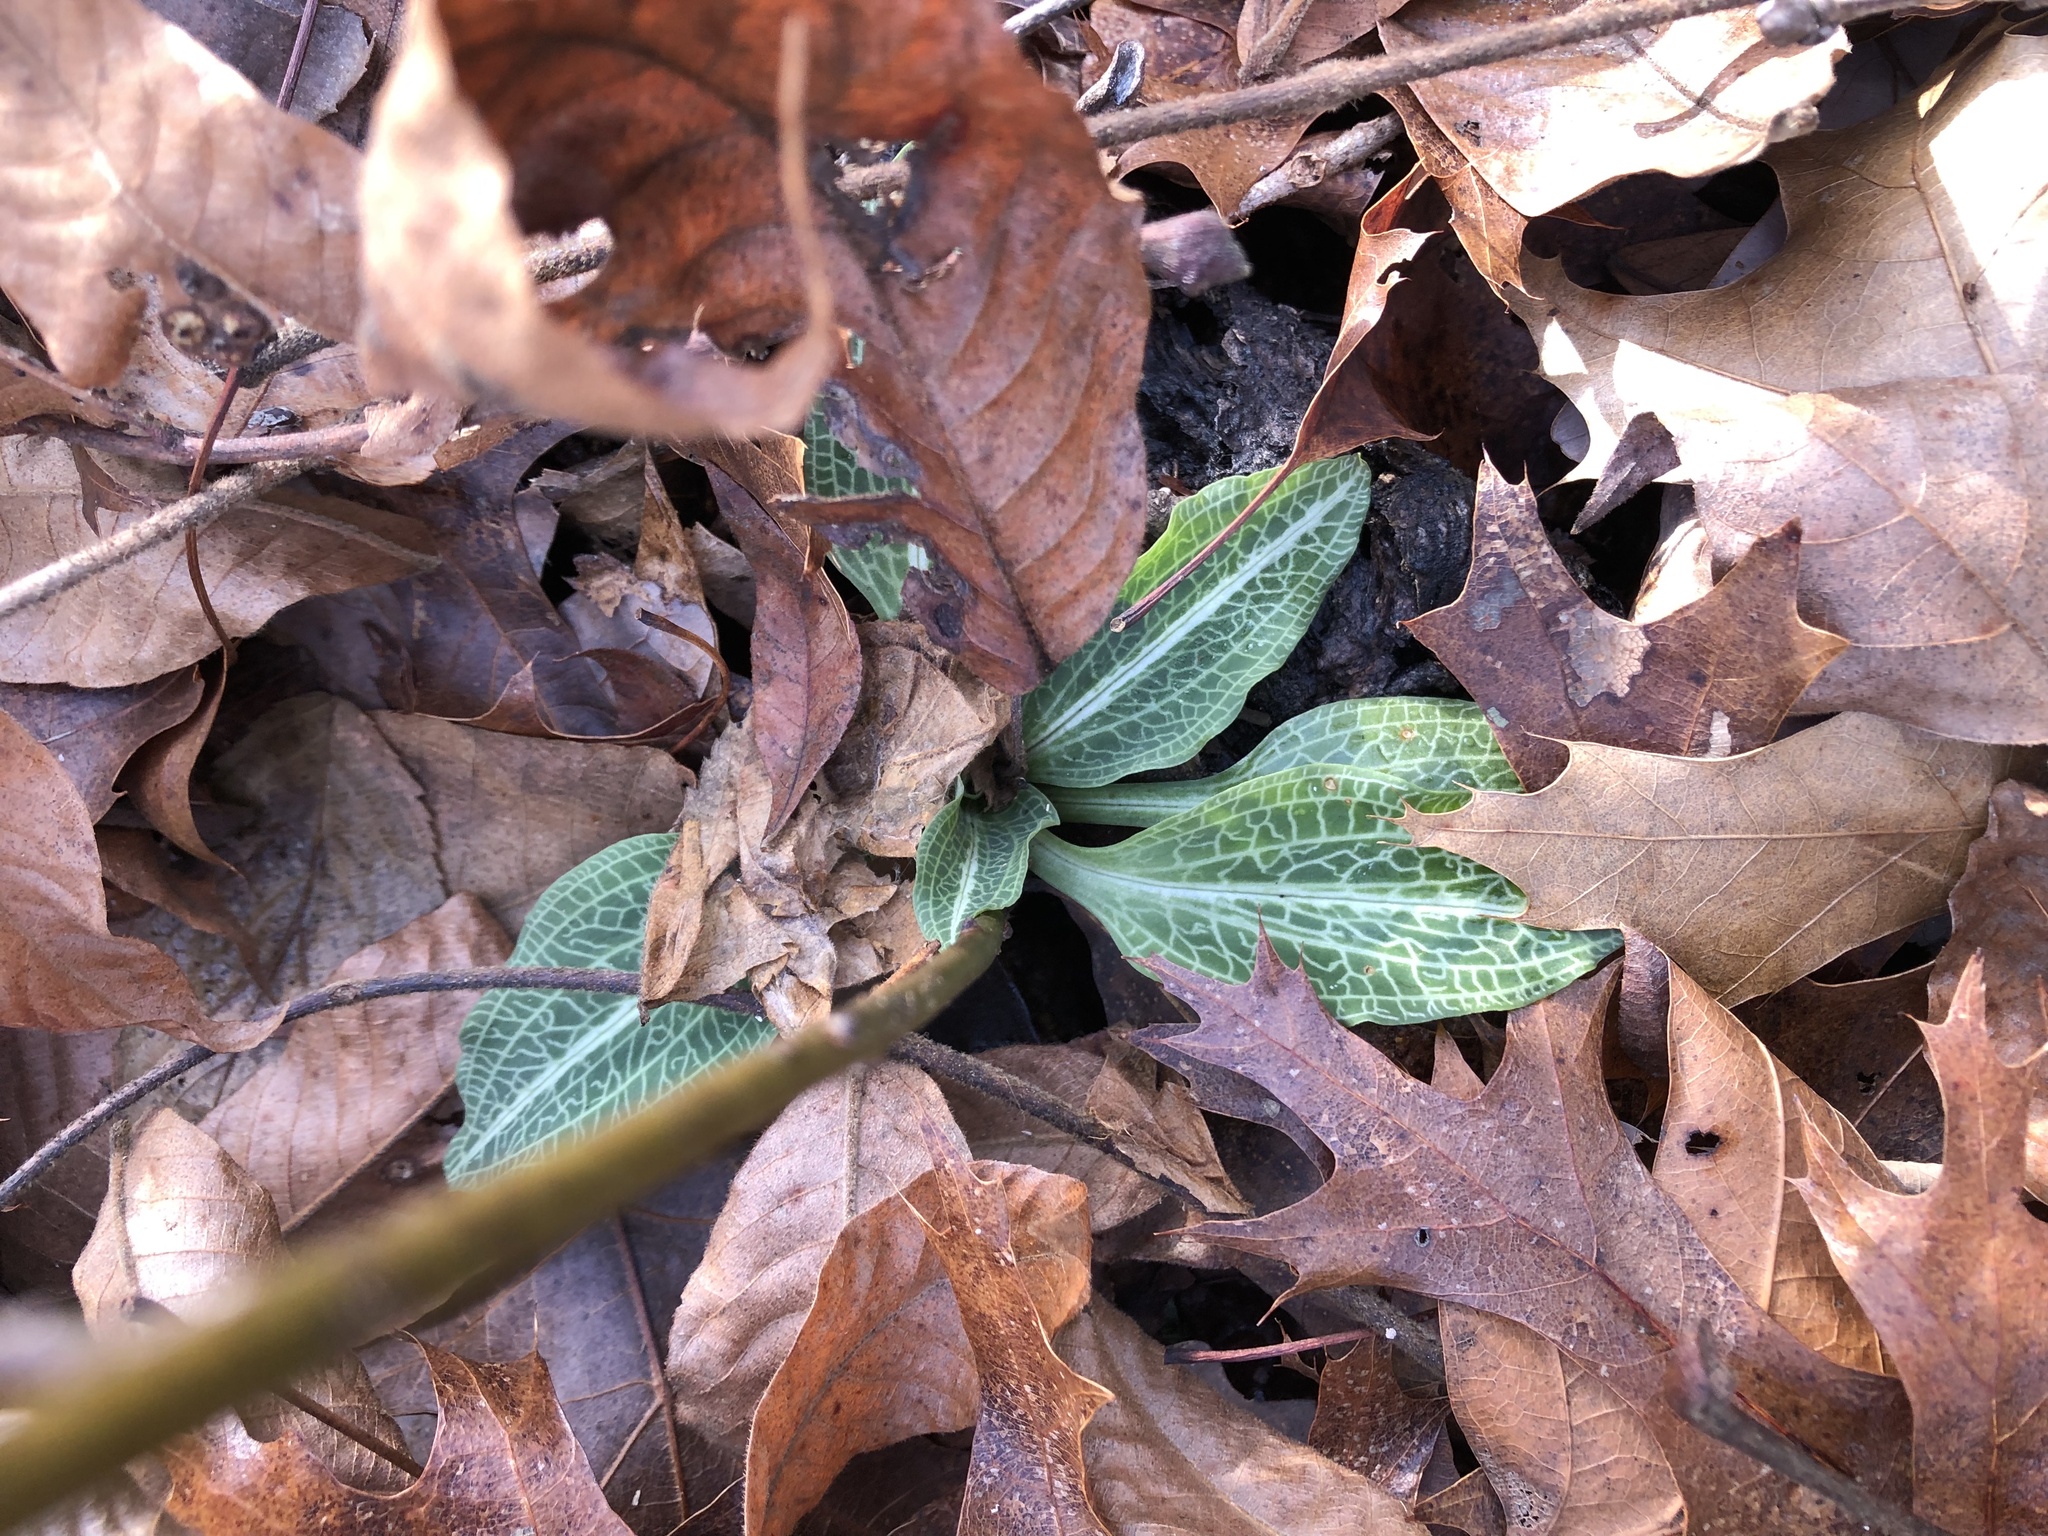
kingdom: Plantae
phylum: Tracheophyta
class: Liliopsida
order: Asparagales
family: Orchidaceae
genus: Goodyera
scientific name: Goodyera pubescens
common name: Downy rattlesnake-plantain
